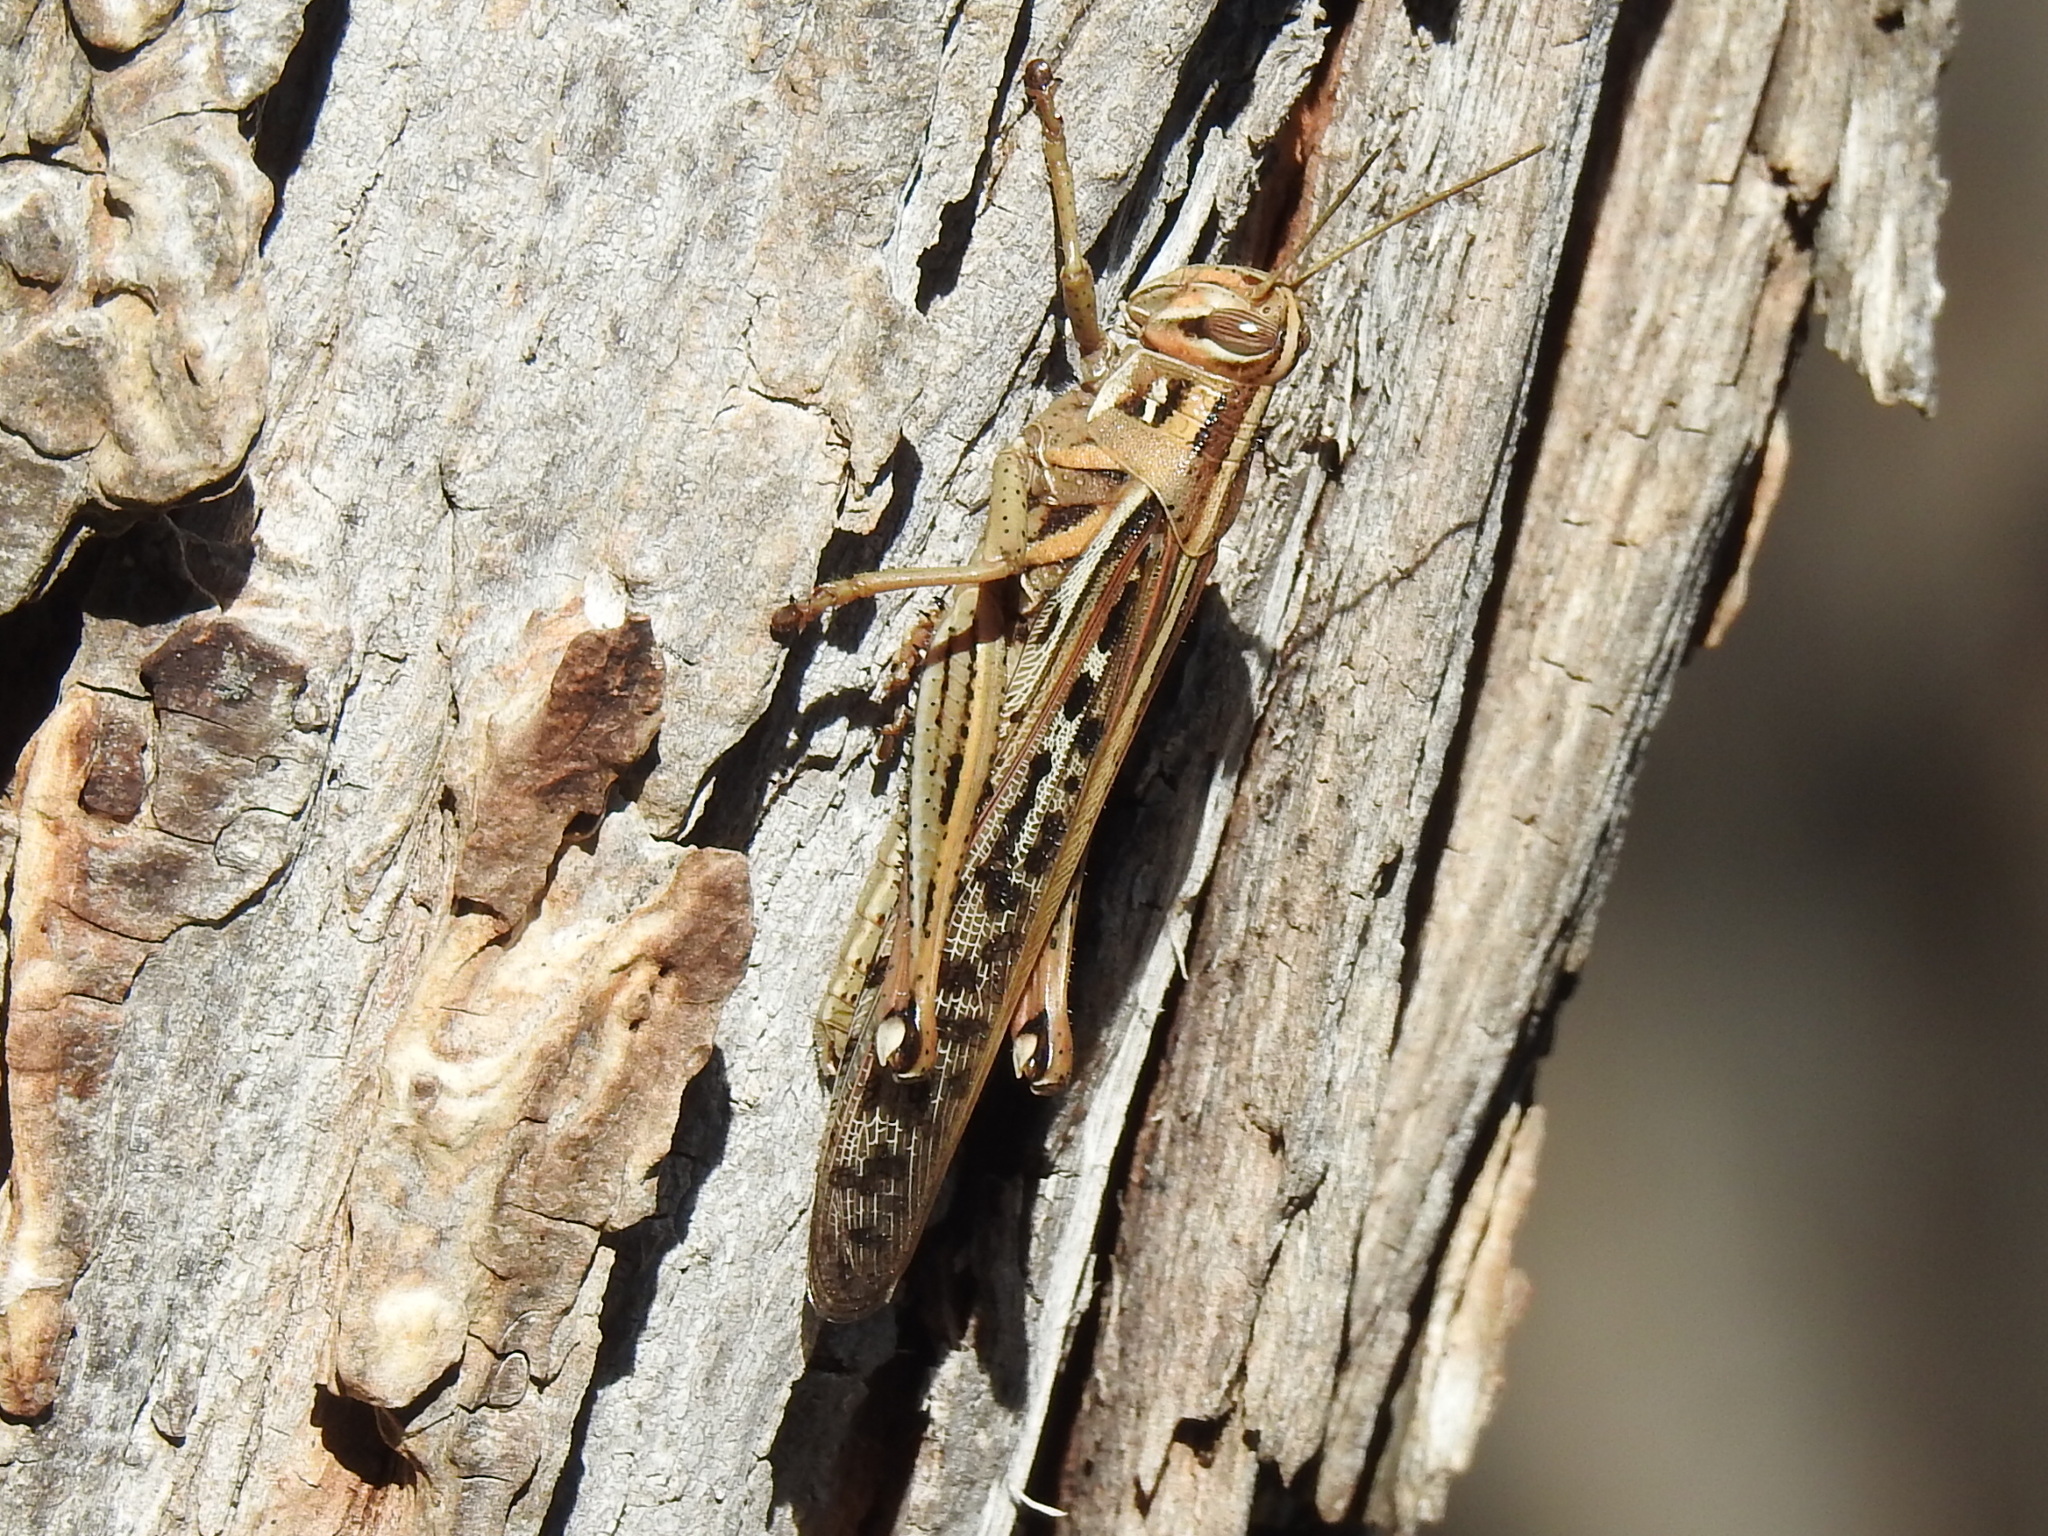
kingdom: Animalia
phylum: Arthropoda
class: Insecta
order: Orthoptera
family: Acrididae
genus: Schistocerca
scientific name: Schistocerca americana
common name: American bird locust
